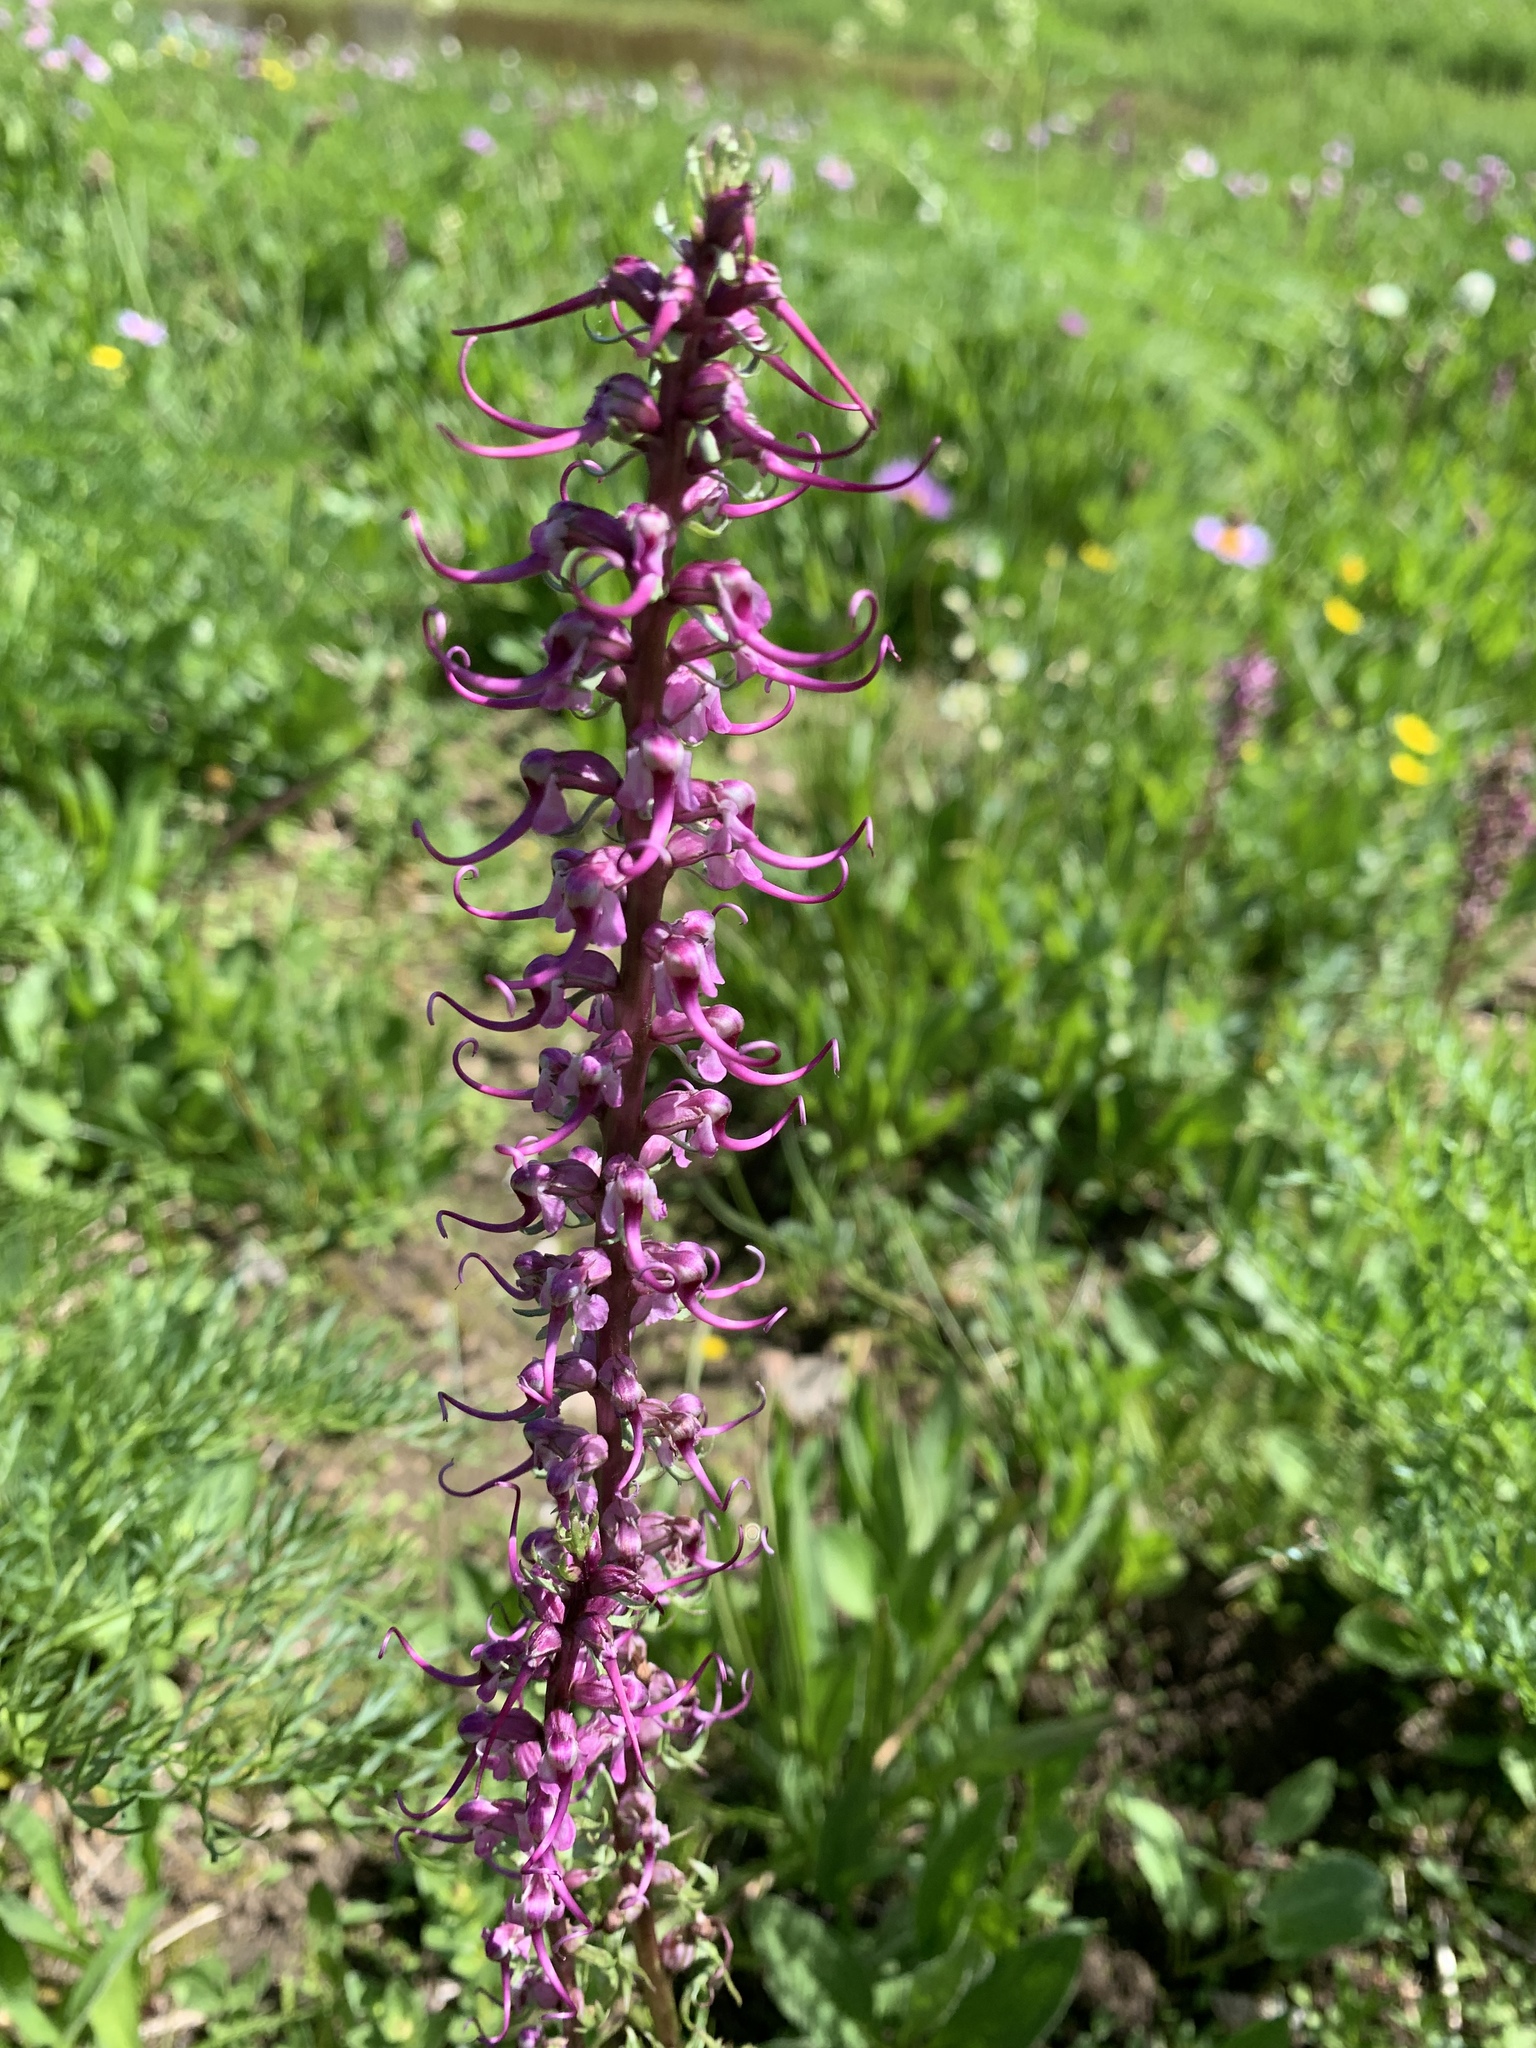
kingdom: Plantae
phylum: Tracheophyta
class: Magnoliopsida
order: Lamiales
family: Orobanchaceae
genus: Pedicularis
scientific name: Pedicularis groenlandica
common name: Elephant's-head
